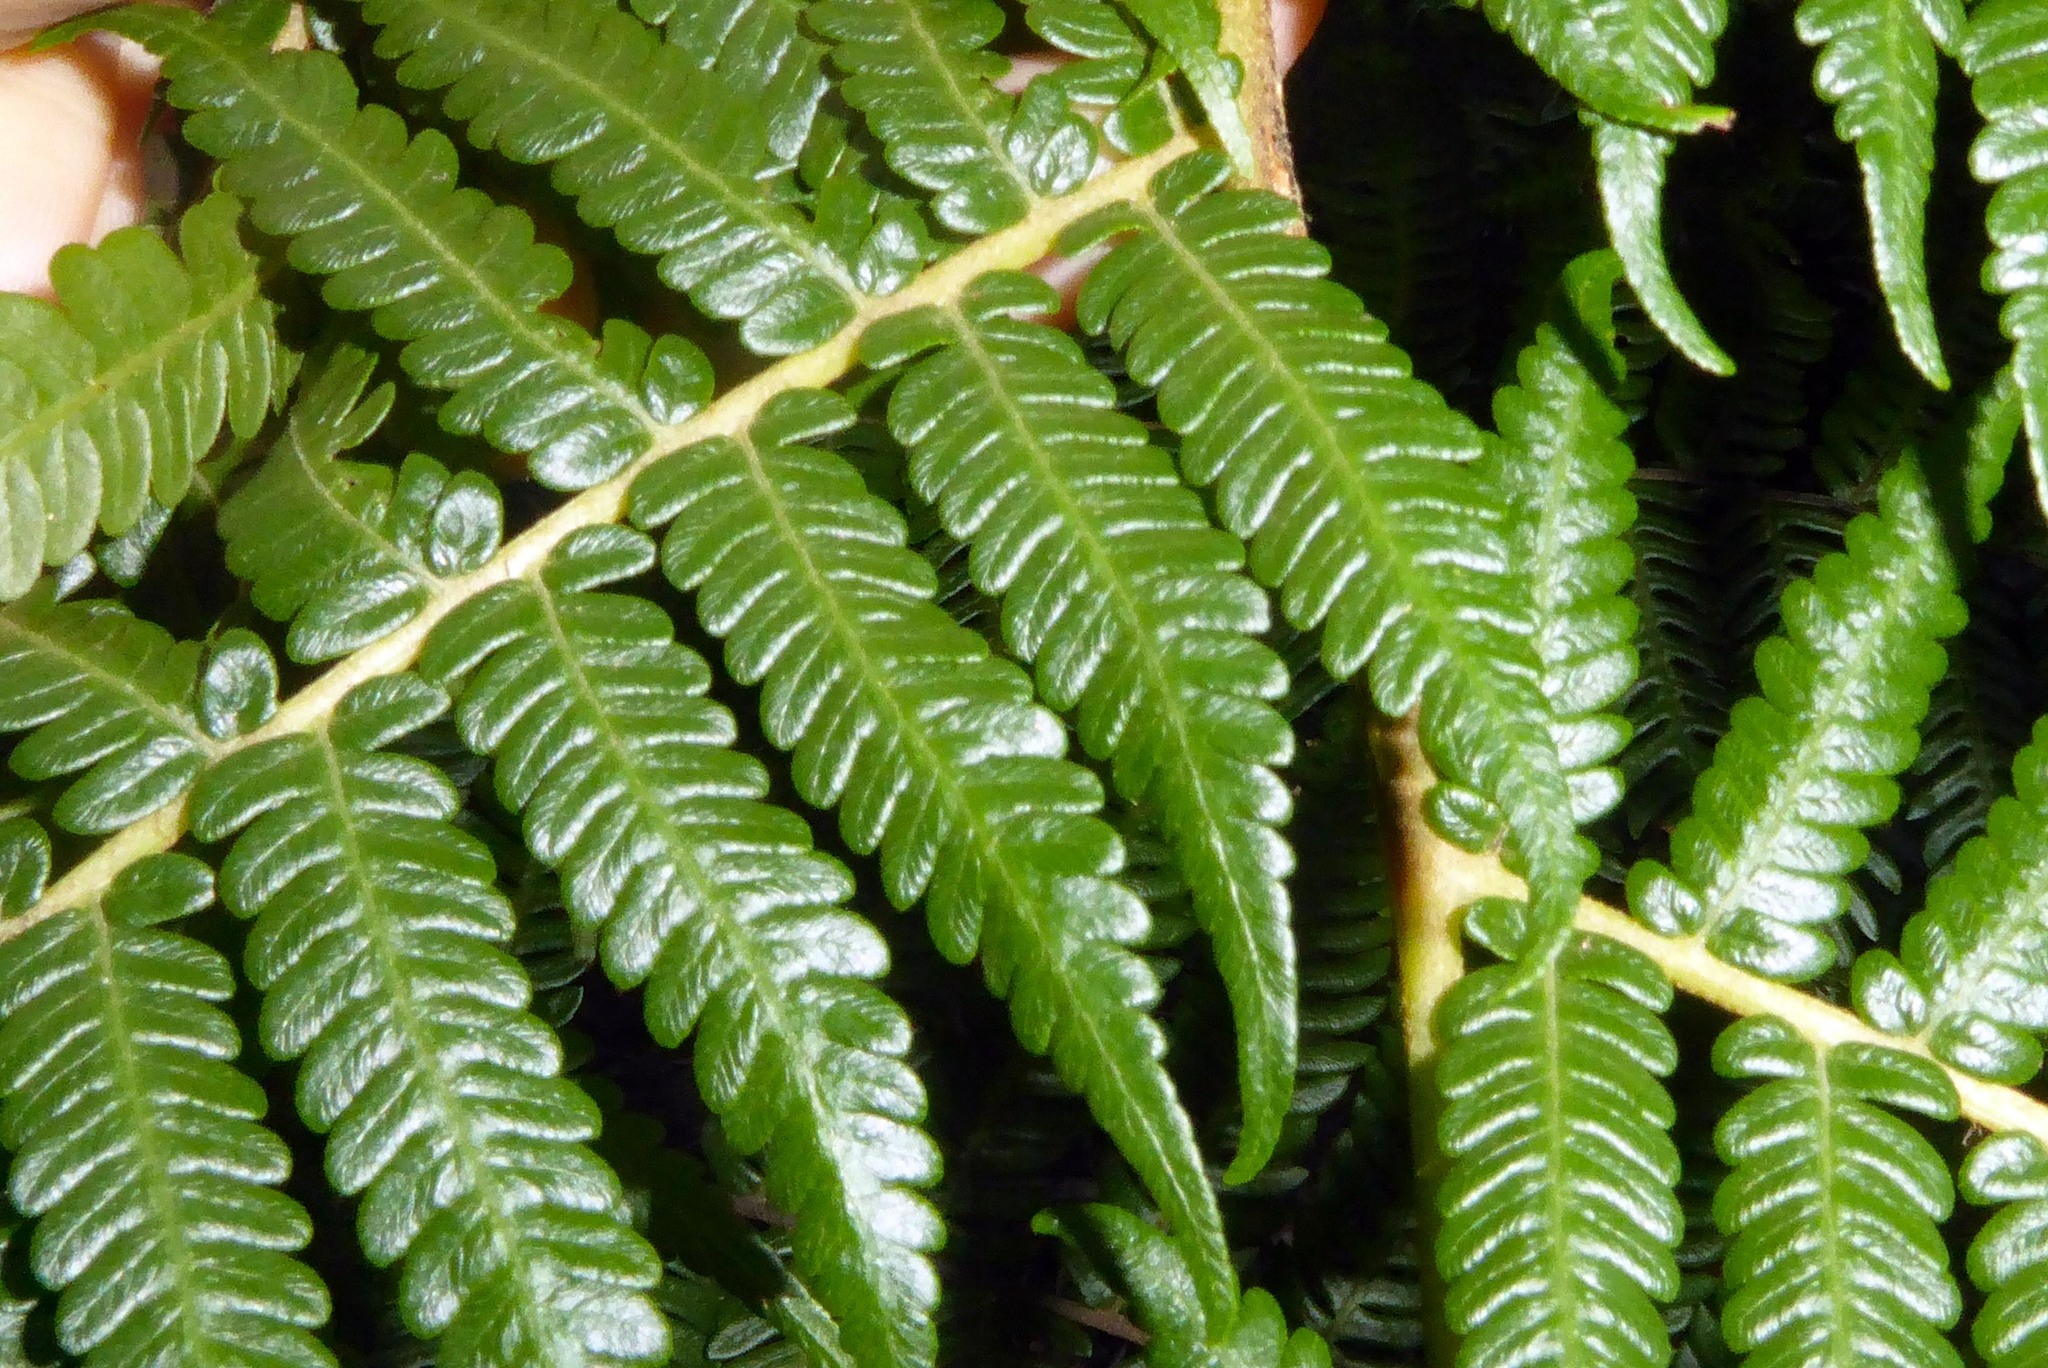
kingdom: Plantae
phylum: Tracheophyta
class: Polypodiopsida
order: Cyatheales
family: Cyatheaceae
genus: Sphaeropteris
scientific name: Sphaeropteris cooperi
